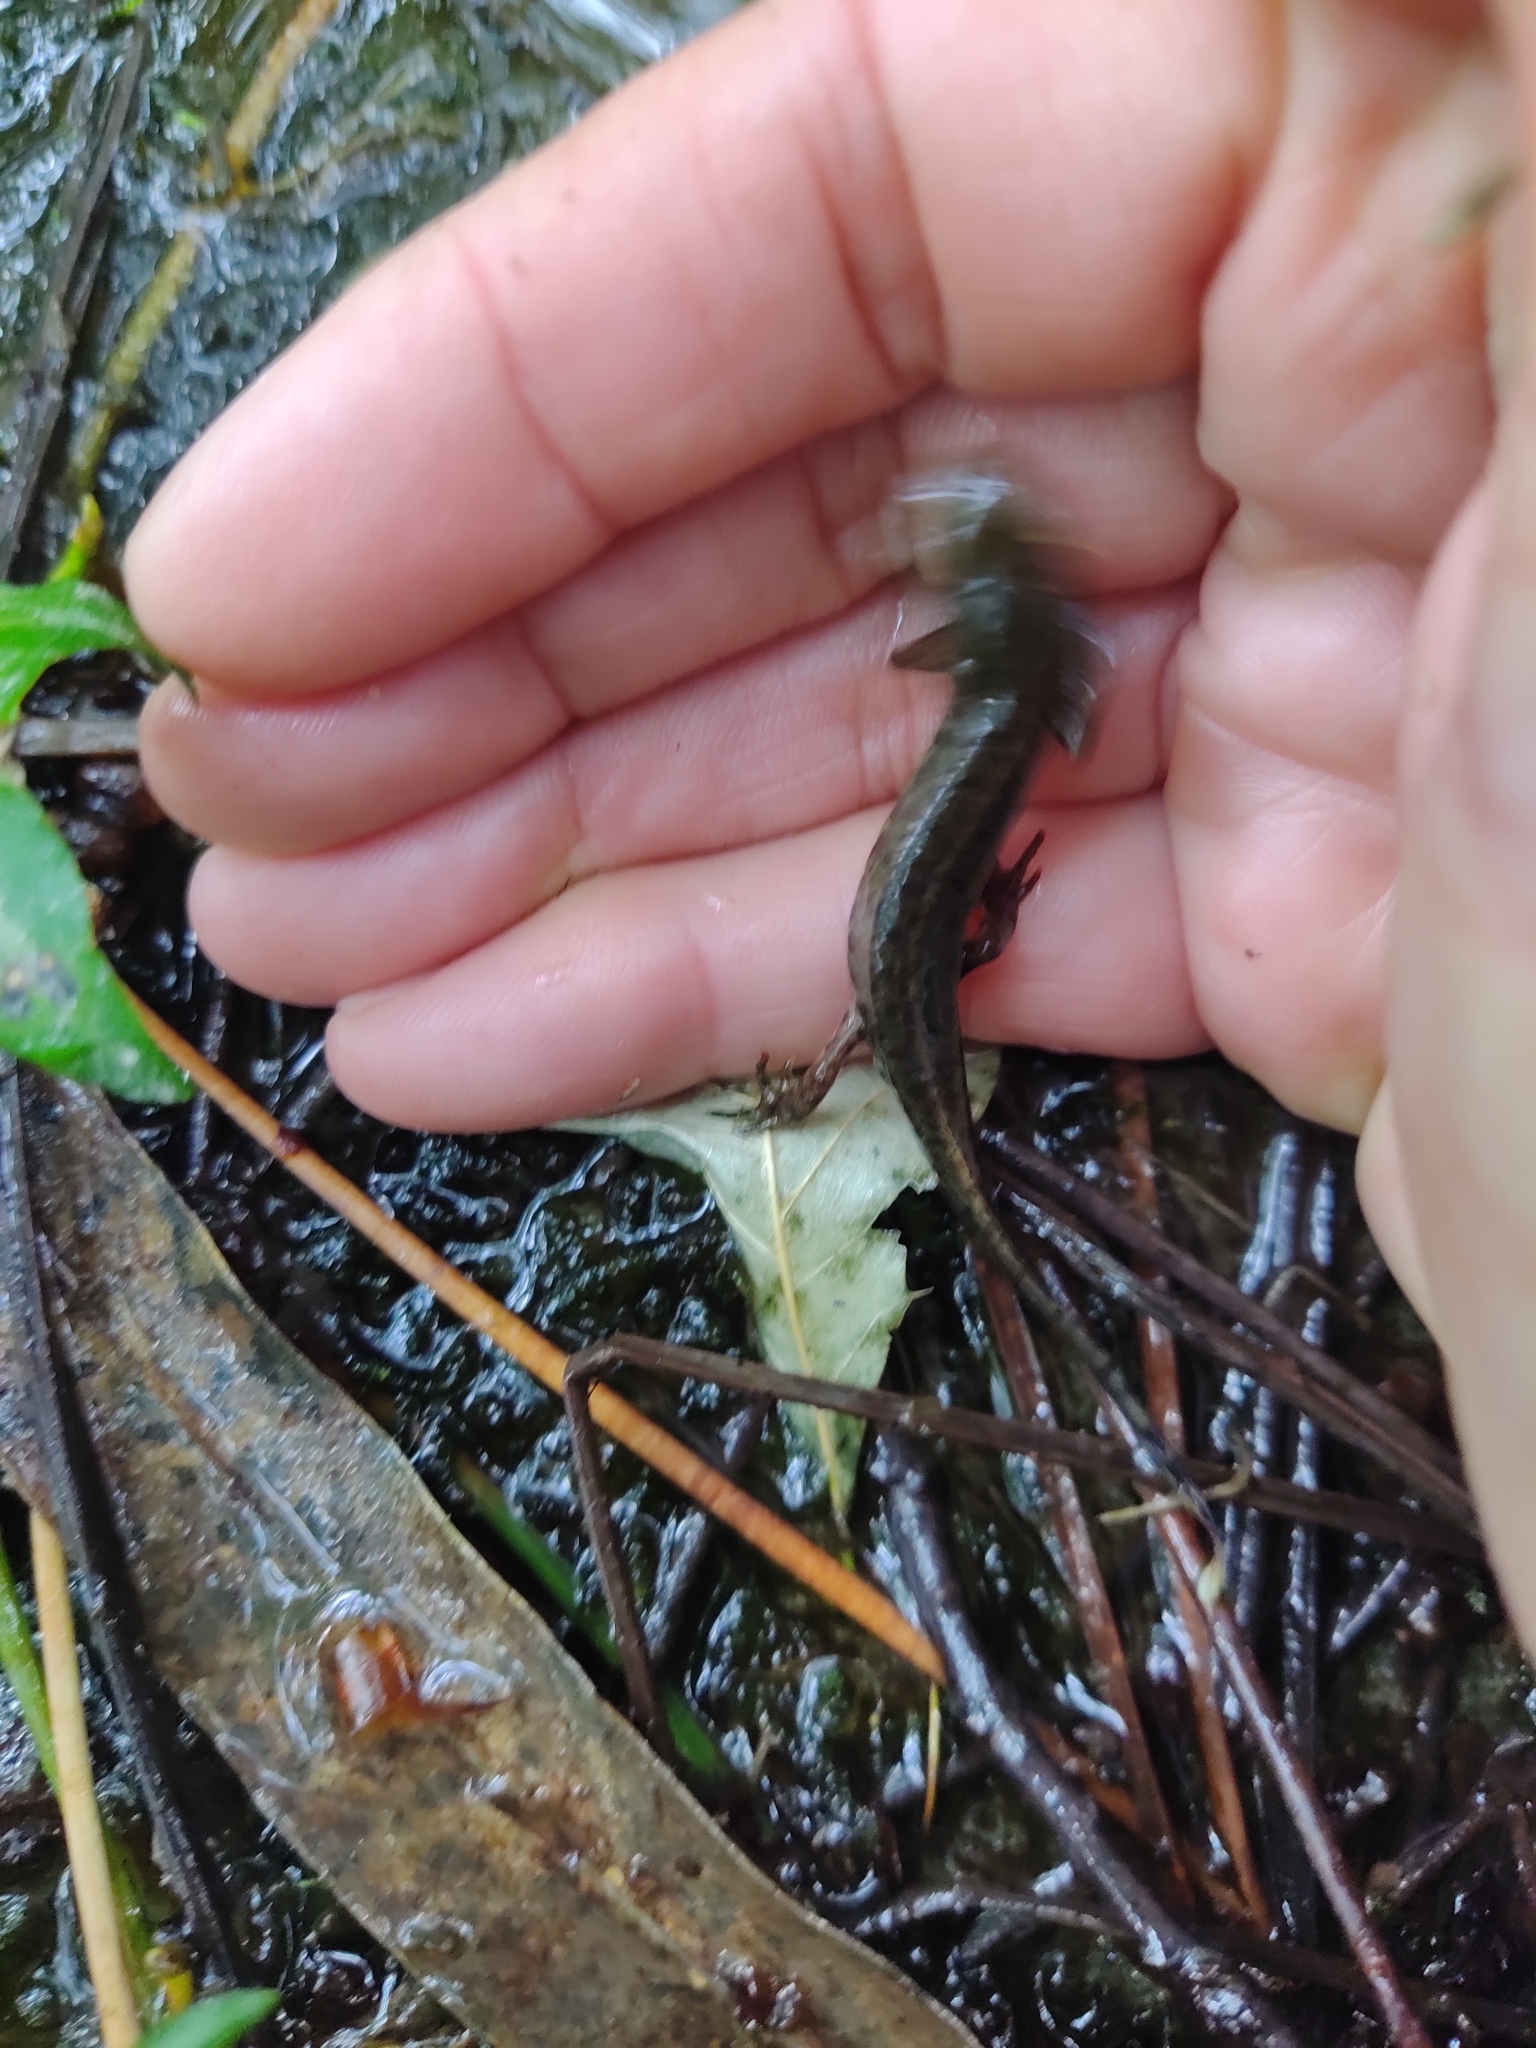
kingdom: Animalia
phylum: Chordata
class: Amphibia
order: Caudata
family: Salamandridae
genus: Lissotriton
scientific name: Lissotriton boscai
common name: Bosca's newt
